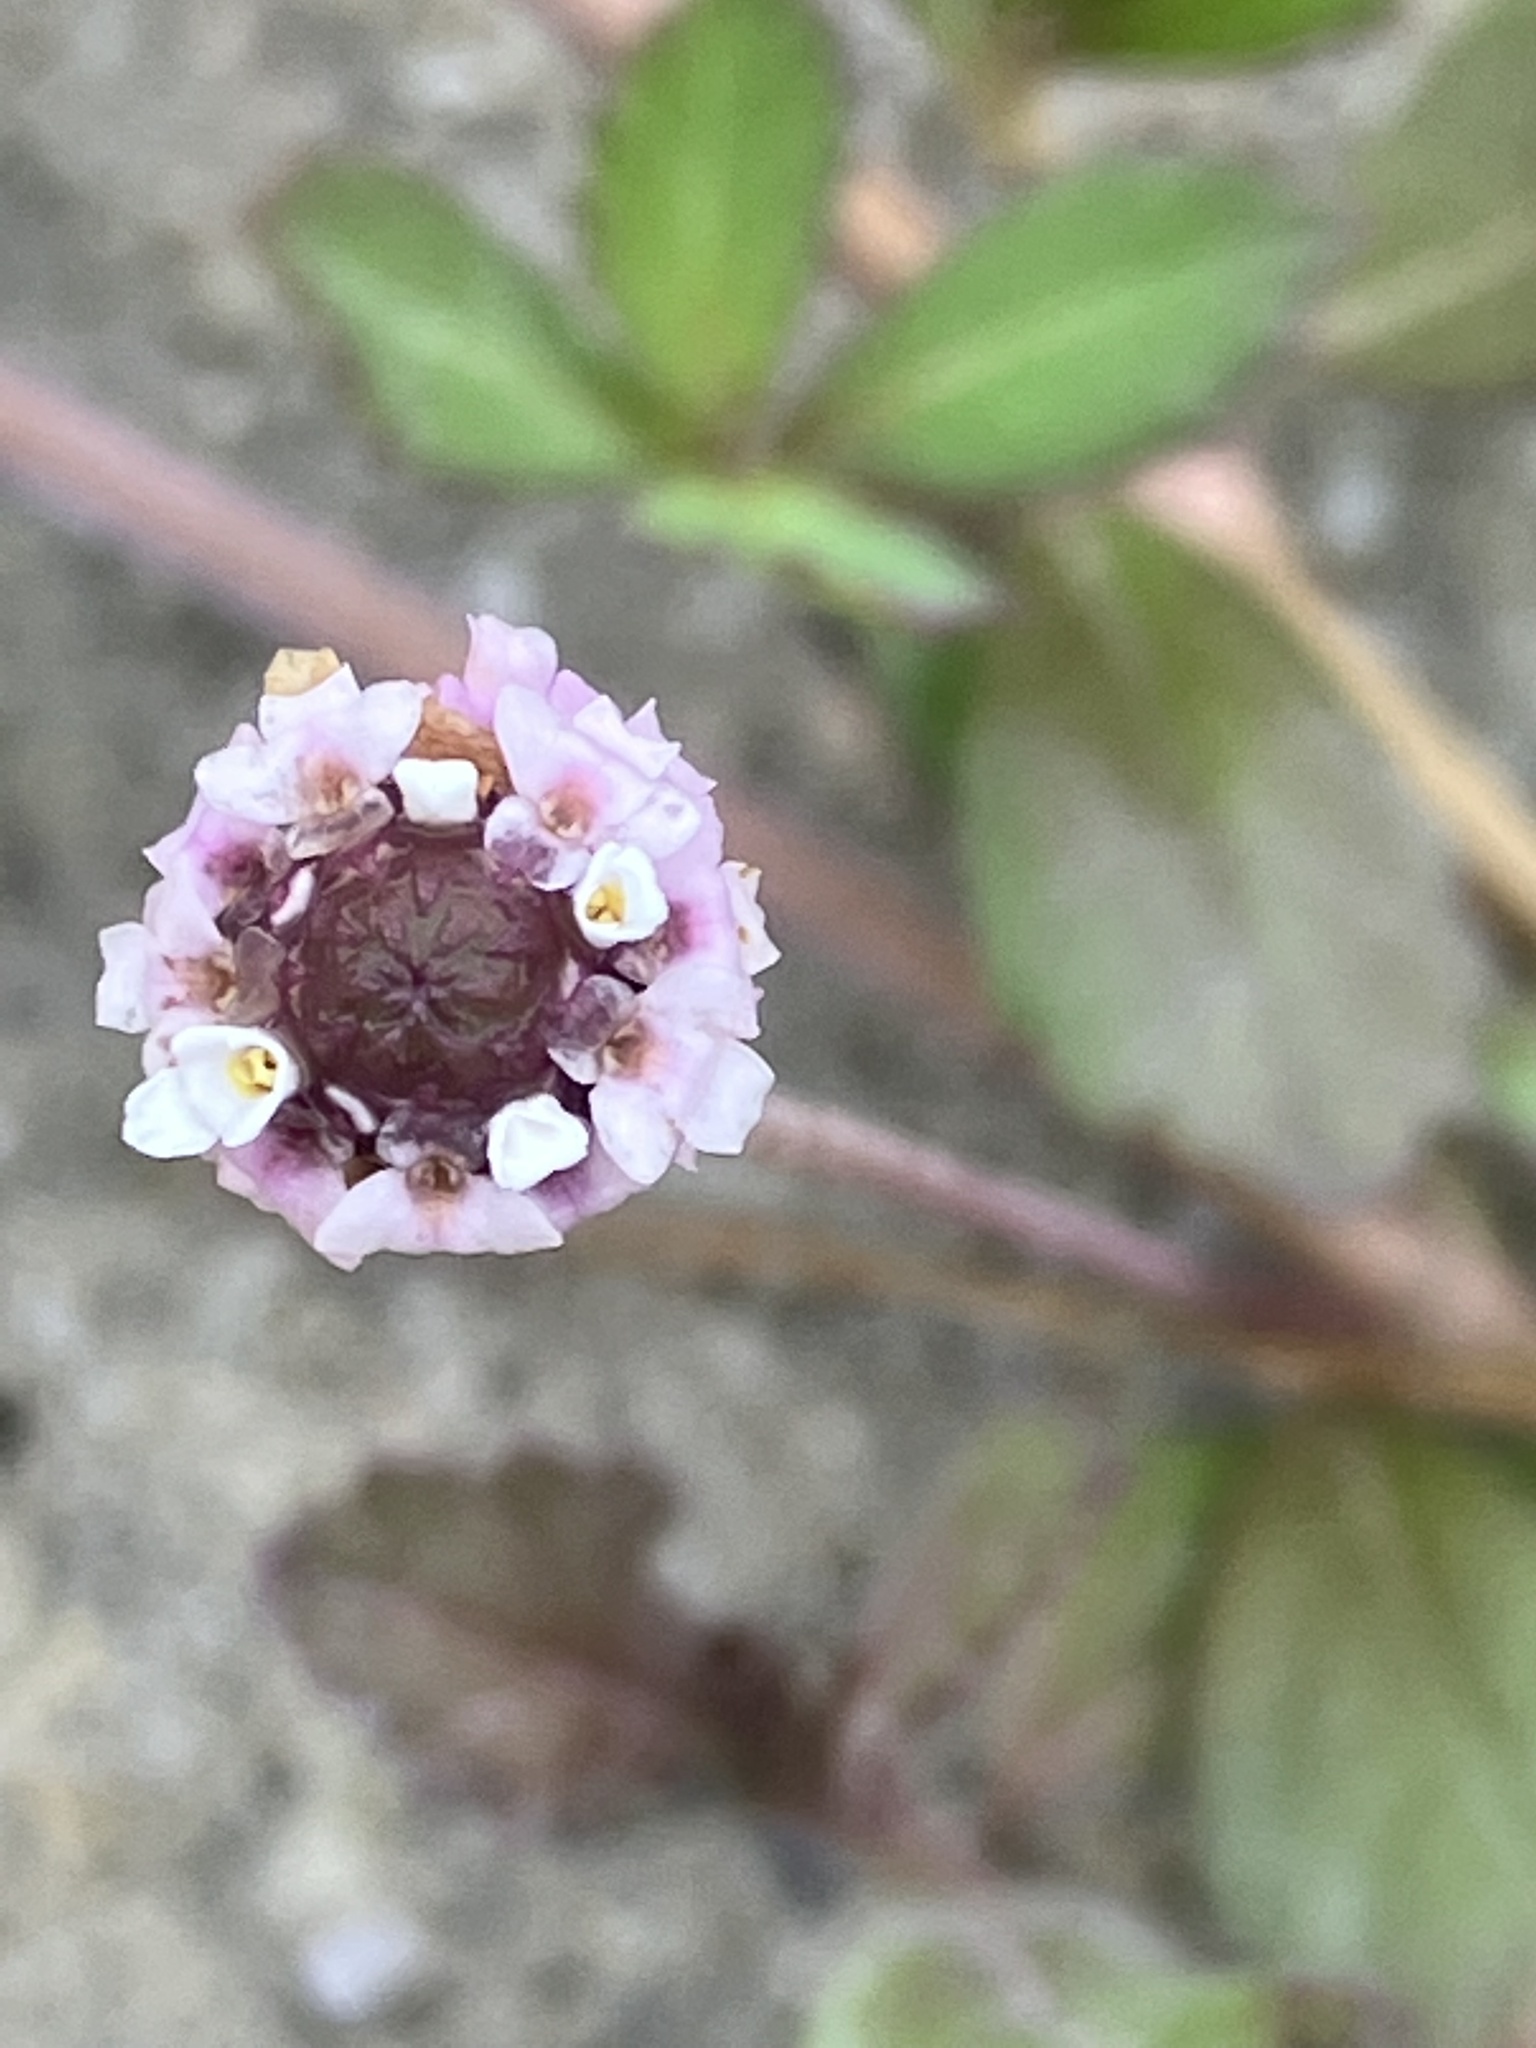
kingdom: Plantae
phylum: Tracheophyta
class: Magnoliopsida
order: Lamiales
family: Verbenaceae
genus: Phyla
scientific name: Phyla nodiflora
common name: Frogfruit
